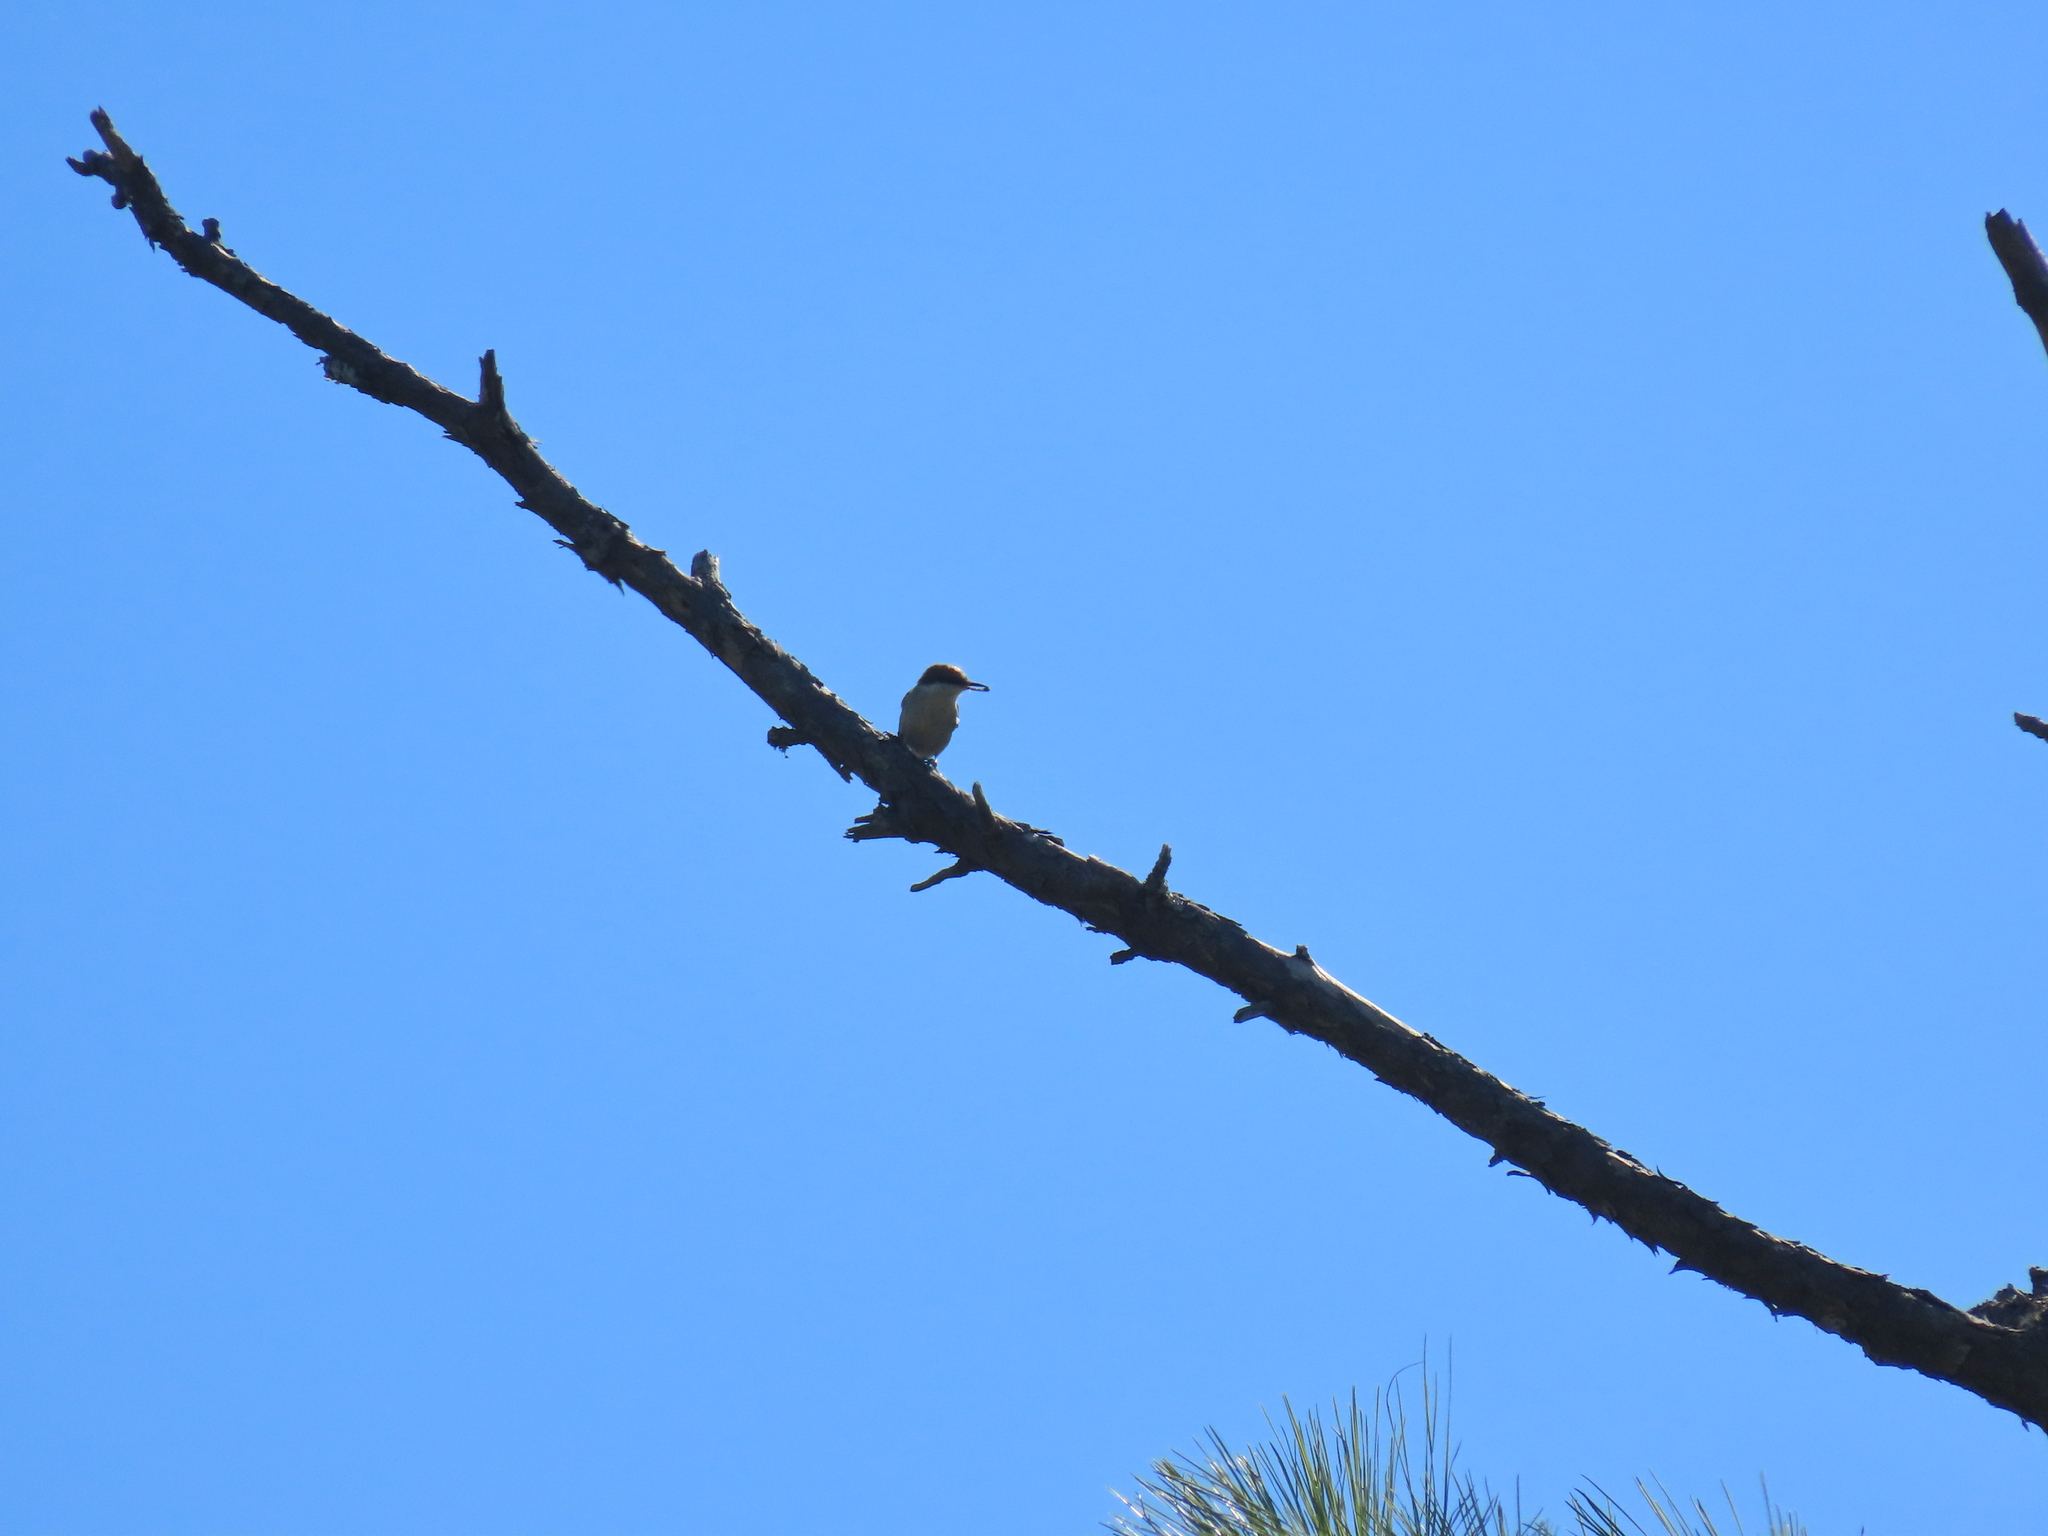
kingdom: Animalia
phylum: Chordata
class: Aves
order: Passeriformes
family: Sittidae
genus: Sitta
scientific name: Sitta pusilla
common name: Brown-headed nuthatch
